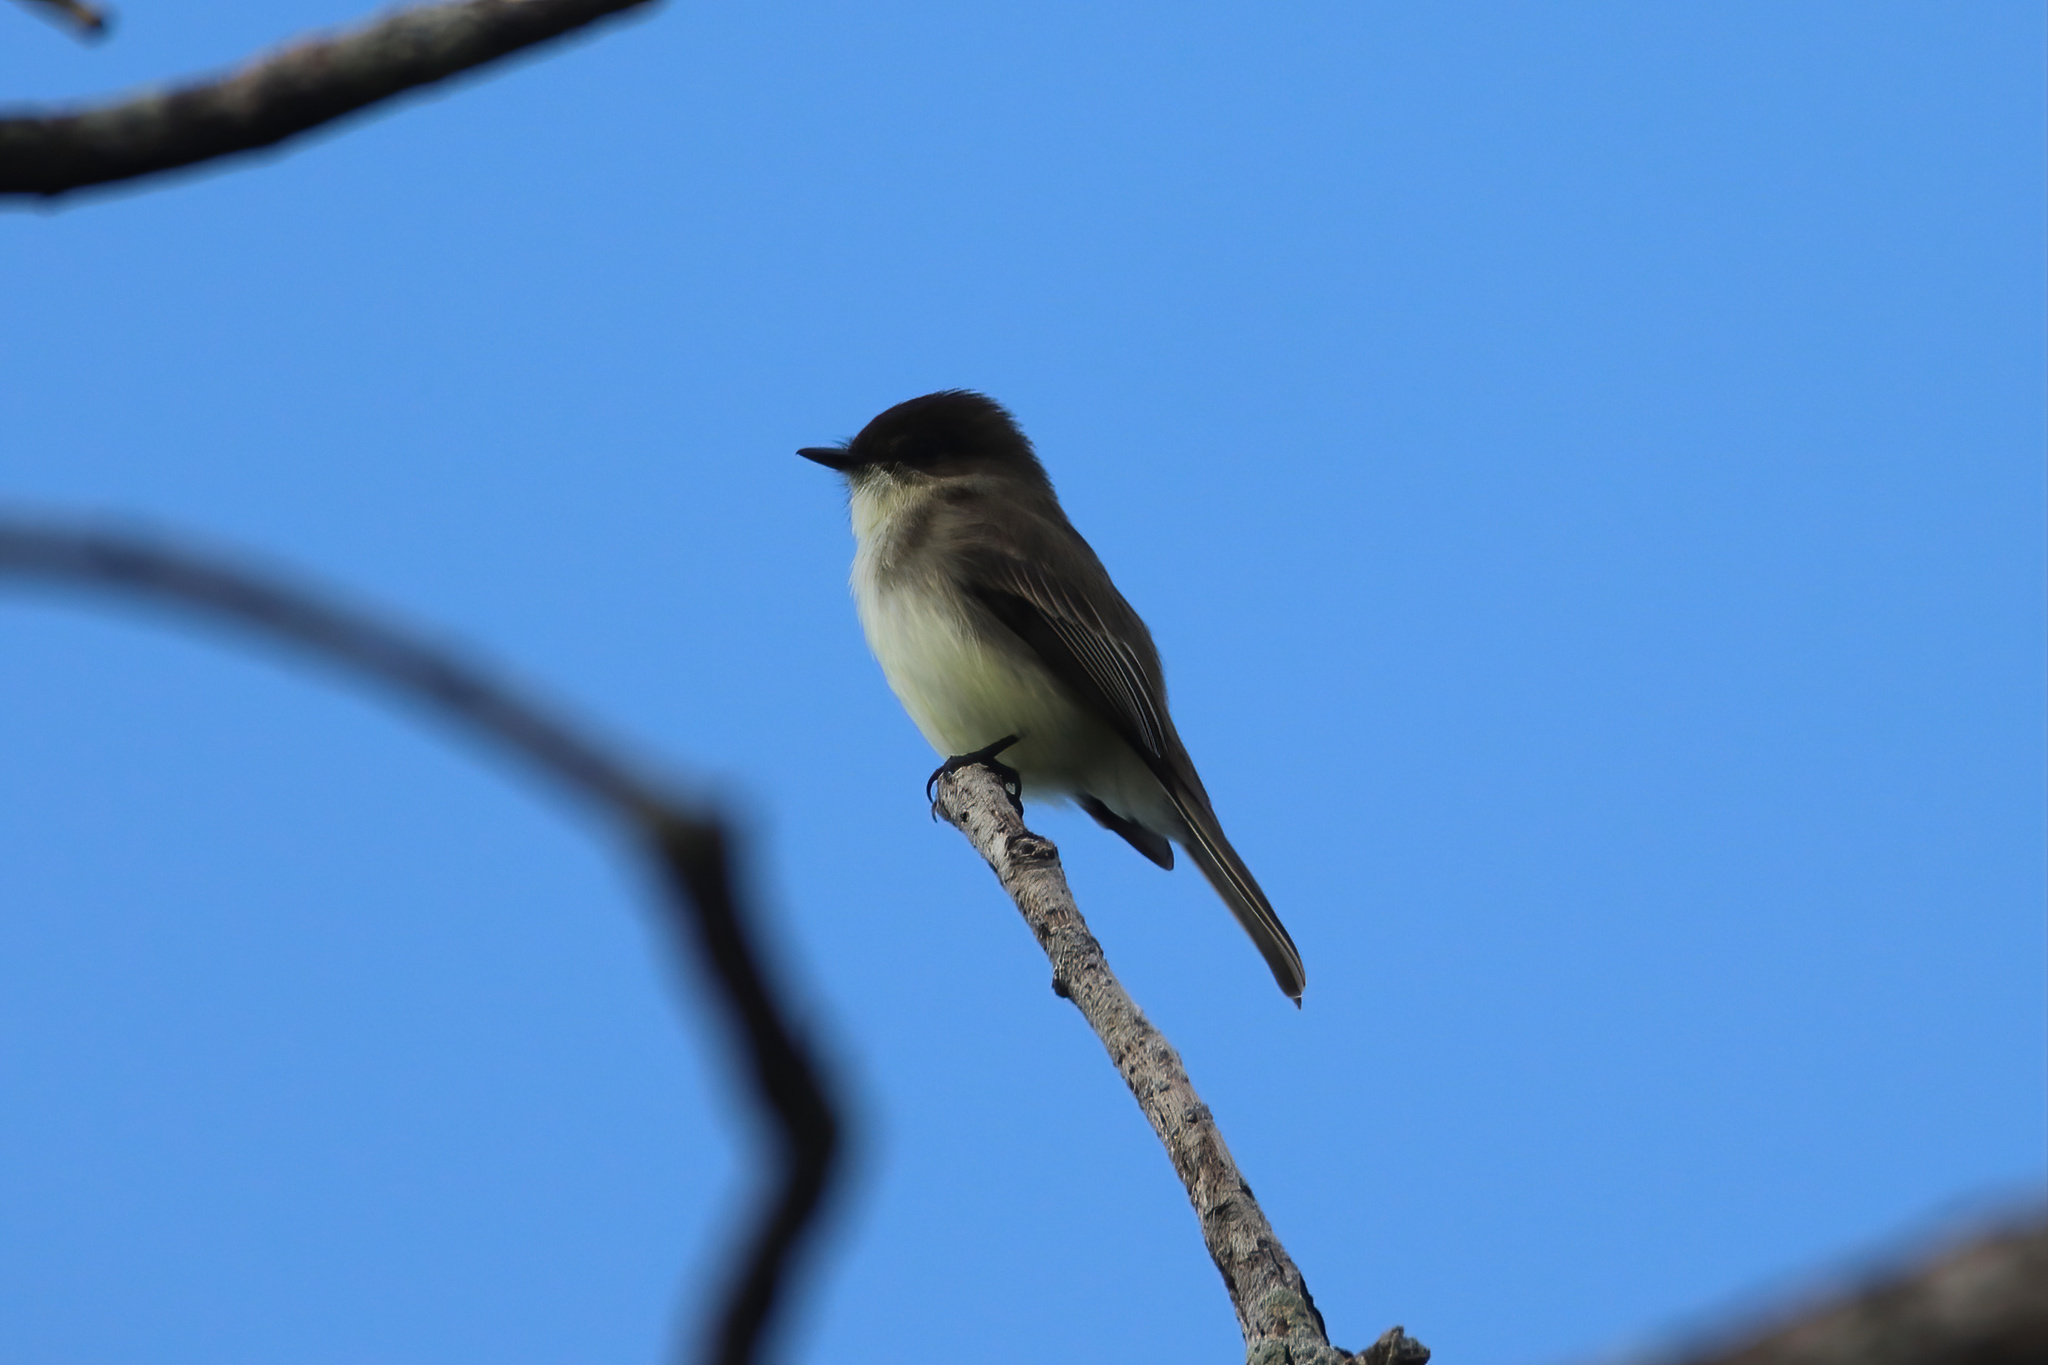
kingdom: Animalia
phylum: Chordata
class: Aves
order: Passeriformes
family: Tyrannidae
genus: Sayornis
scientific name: Sayornis phoebe
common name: Eastern phoebe
